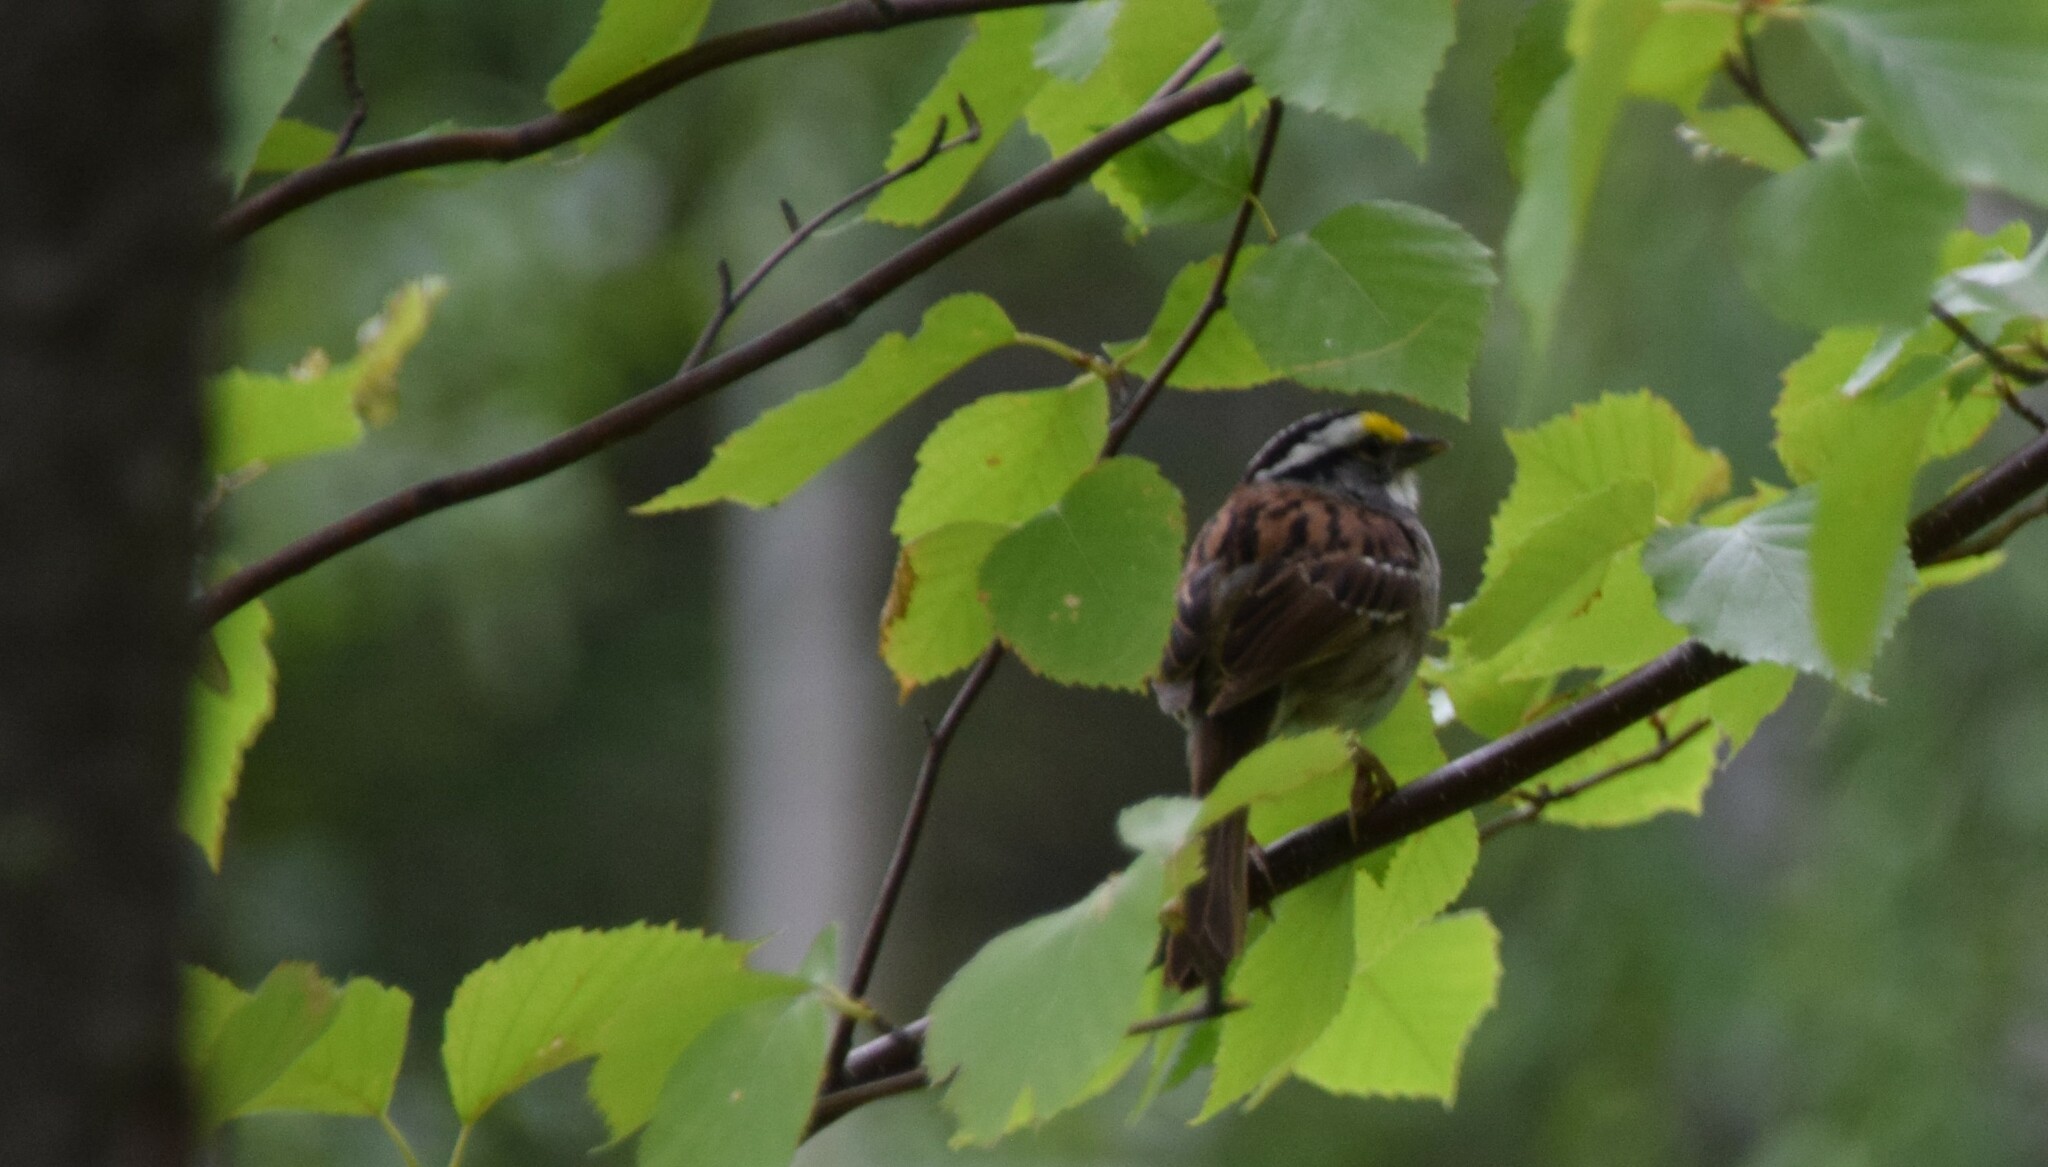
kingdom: Animalia
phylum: Chordata
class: Aves
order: Passeriformes
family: Passerellidae
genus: Zonotrichia
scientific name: Zonotrichia albicollis
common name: White-throated sparrow
